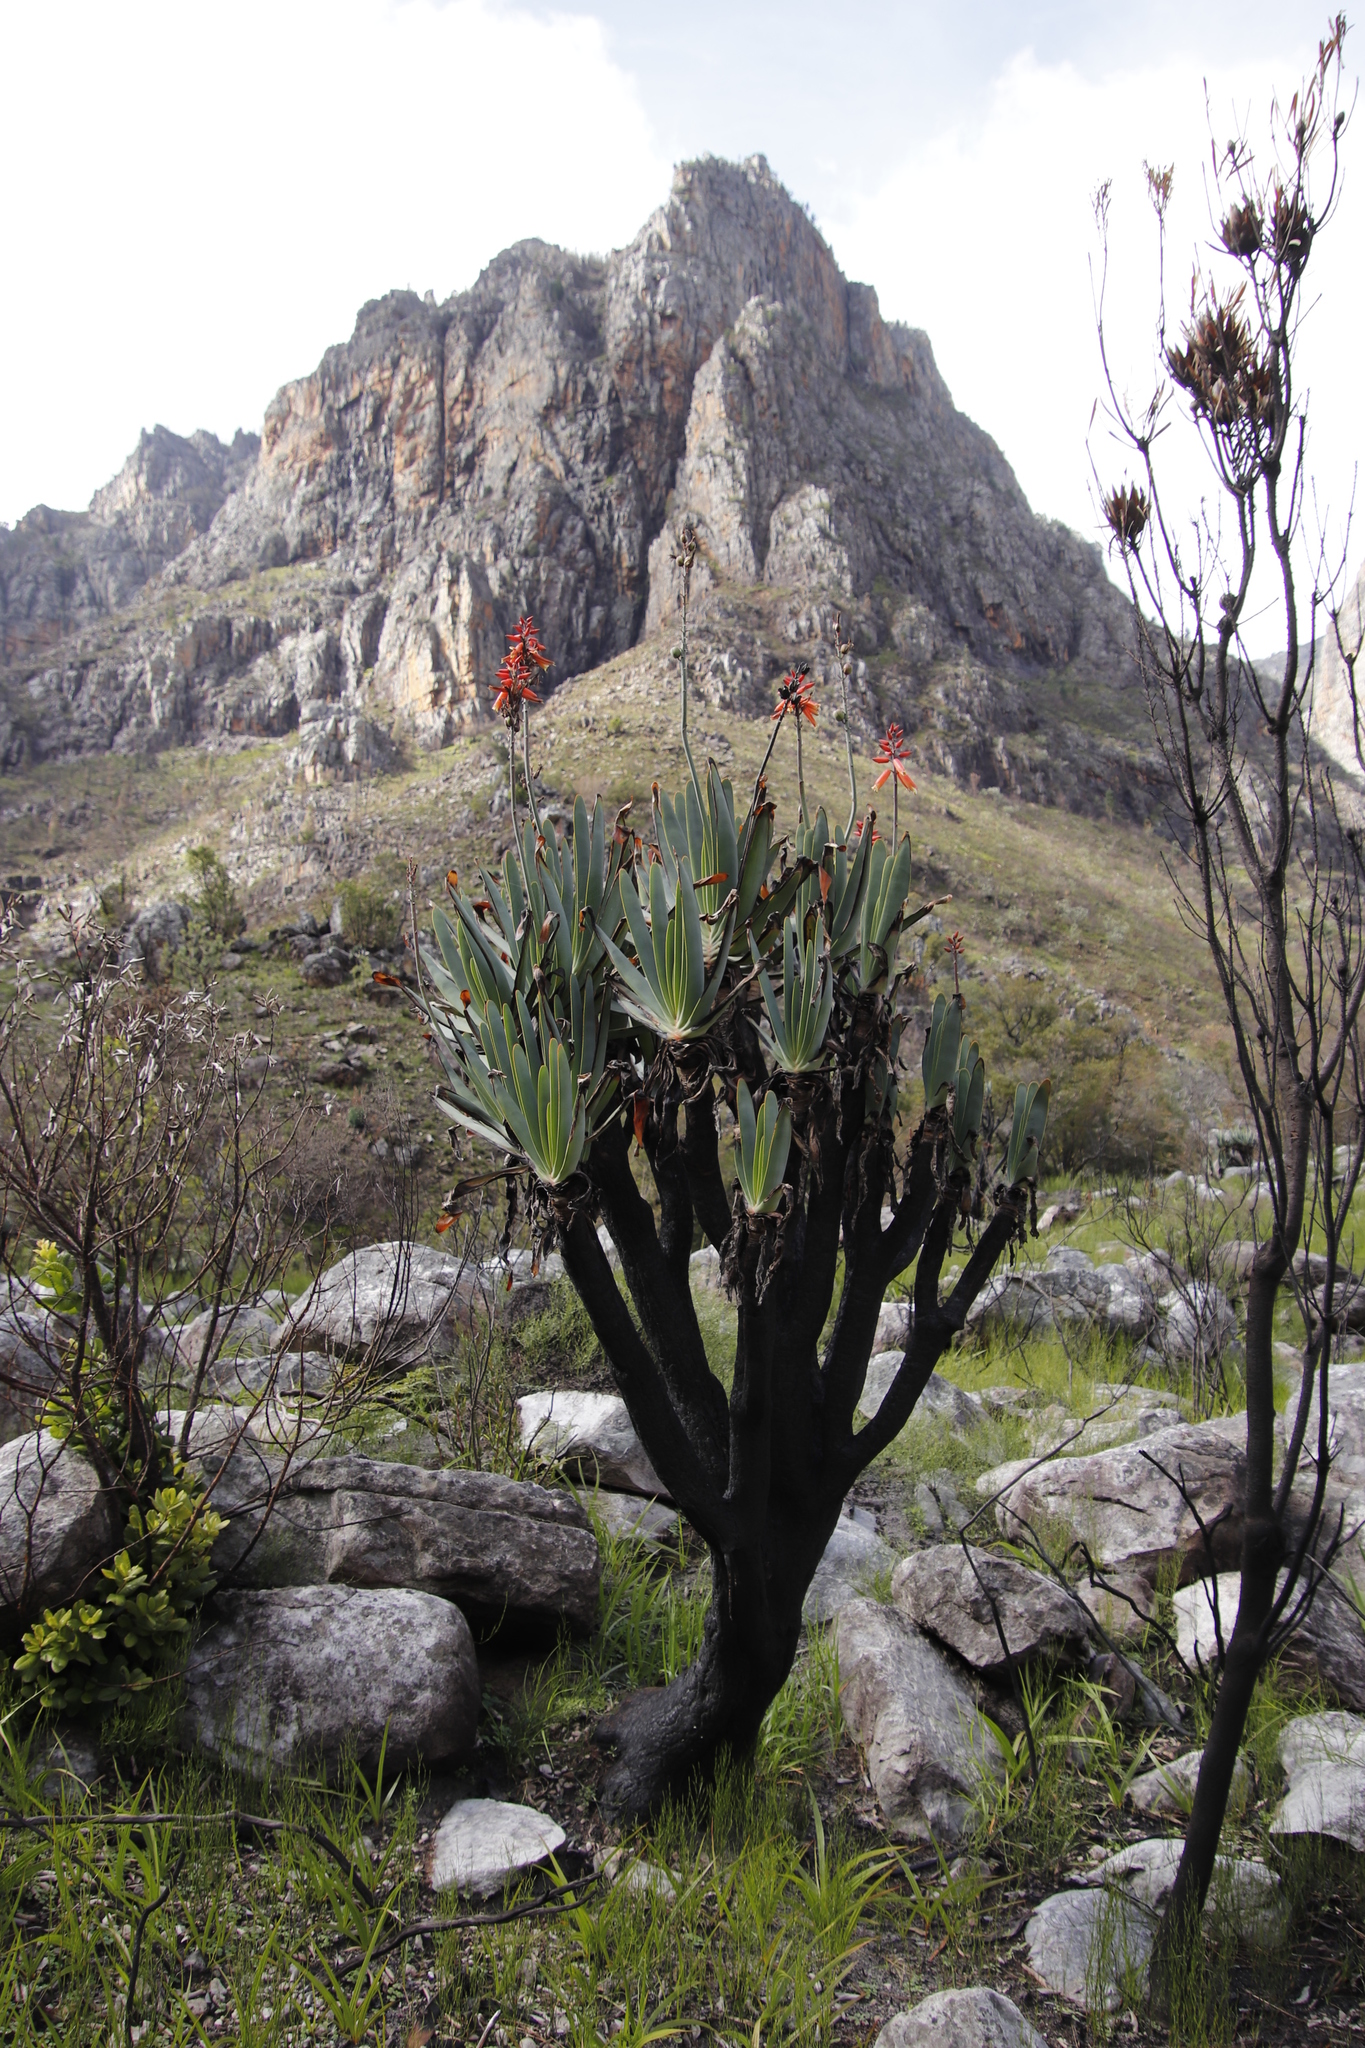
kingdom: Plantae
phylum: Tracheophyta
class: Liliopsida
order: Asparagales
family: Asphodelaceae
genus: Kumara
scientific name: Kumara plicatilis
